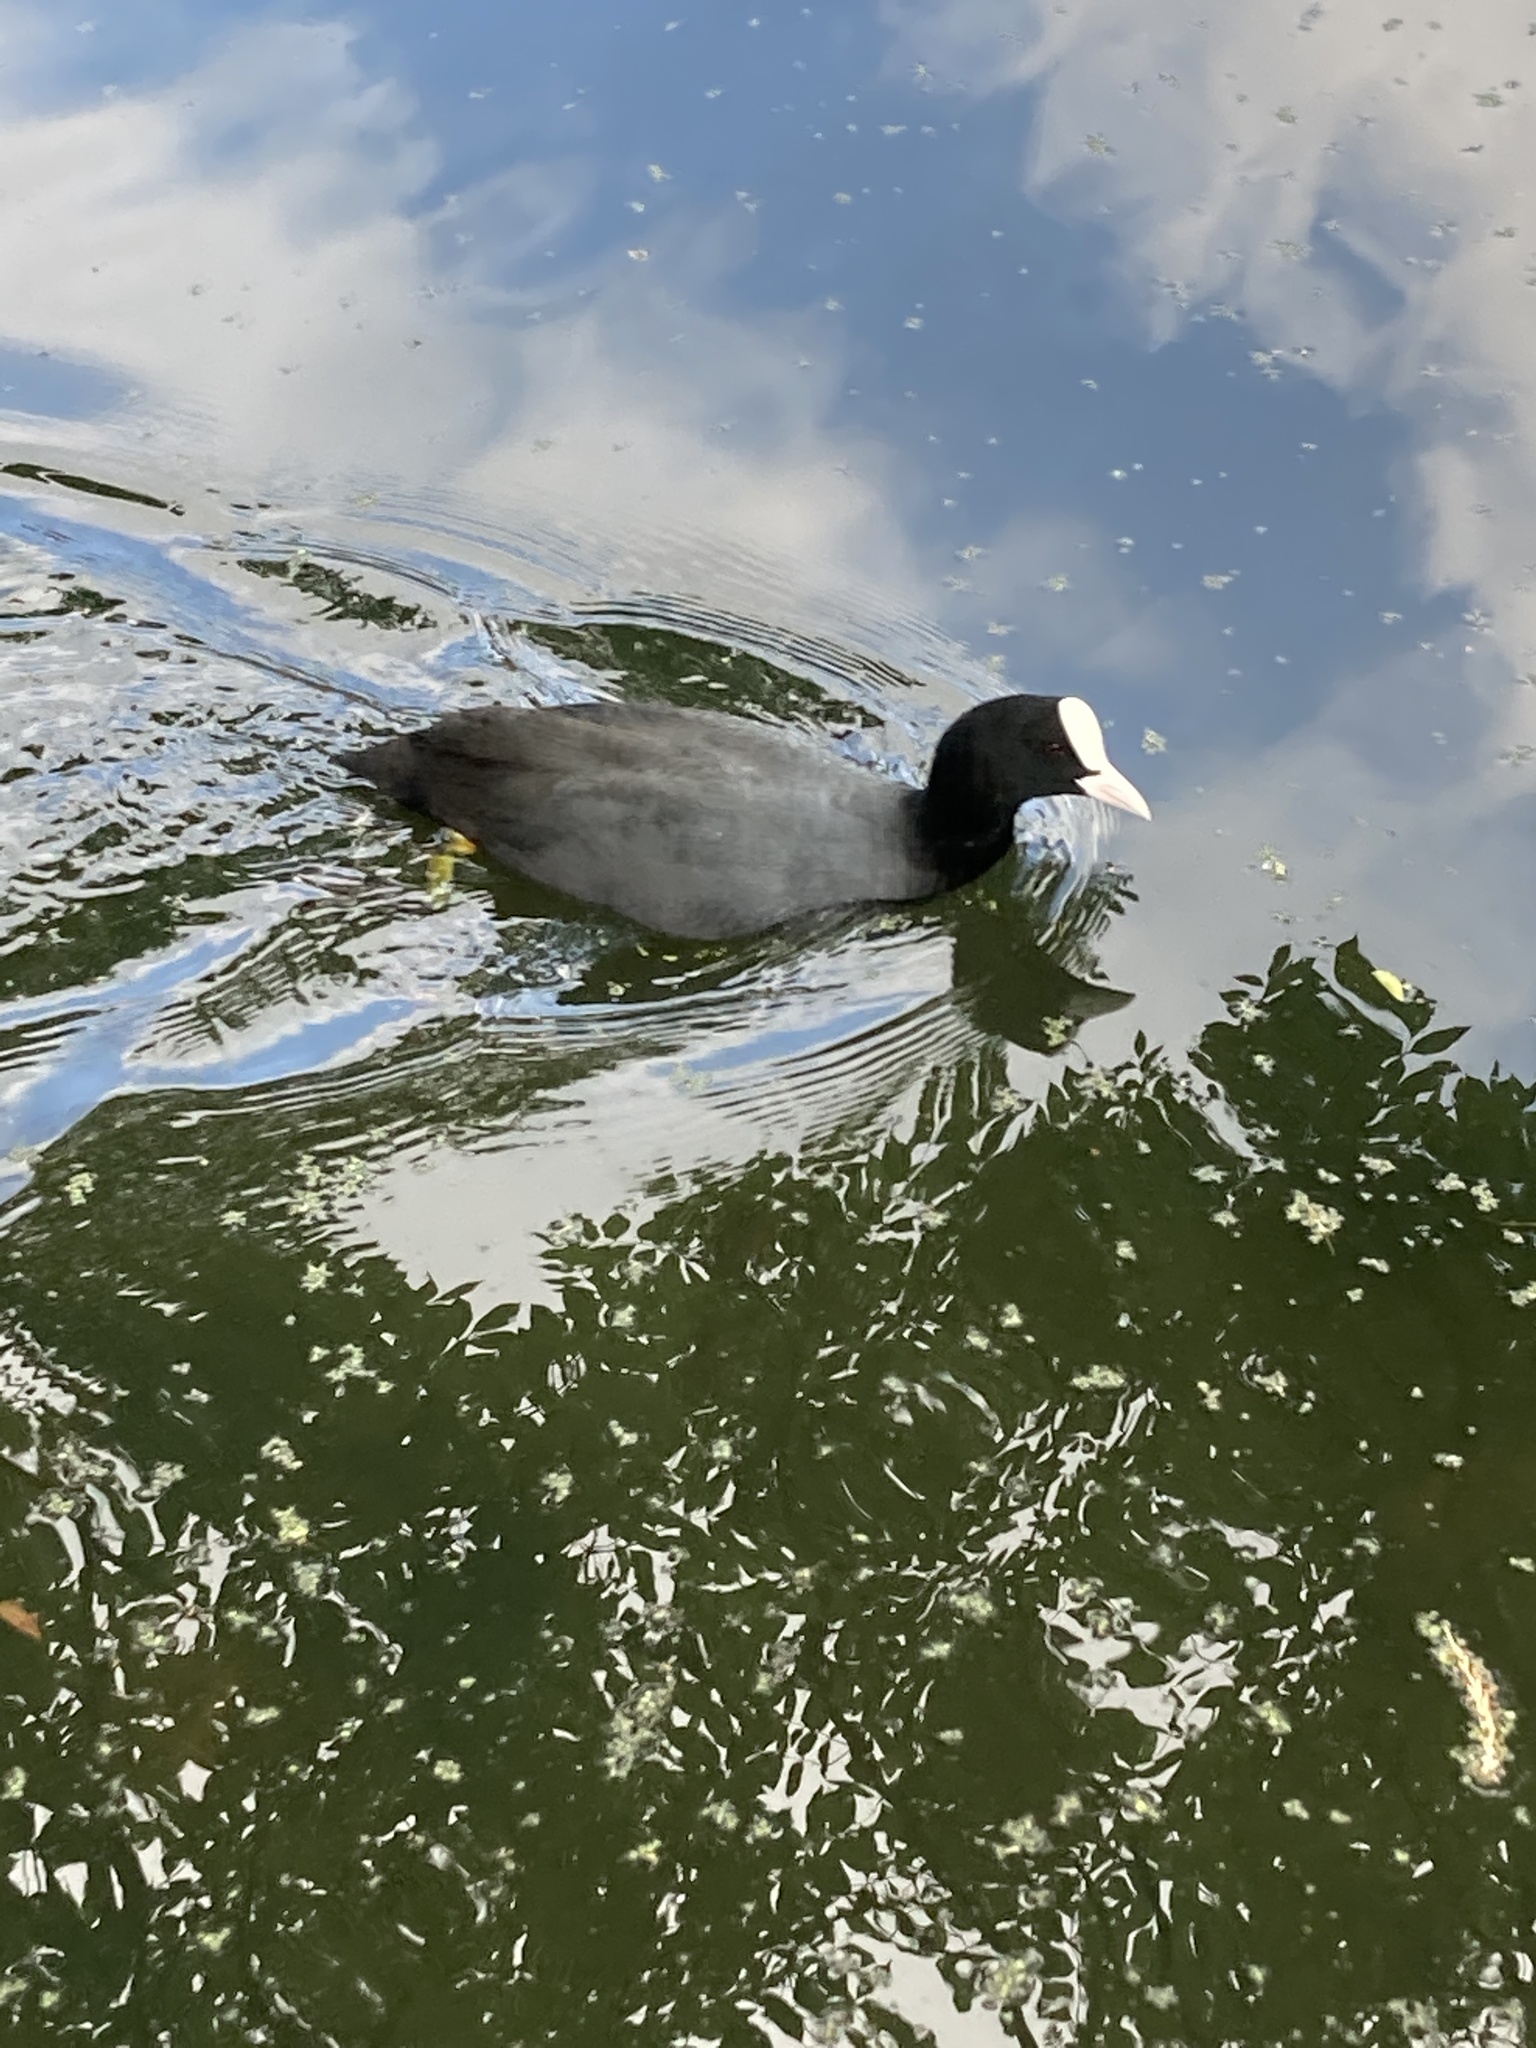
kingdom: Animalia
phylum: Chordata
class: Aves
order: Gruiformes
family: Rallidae
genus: Fulica
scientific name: Fulica atra
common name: Eurasian coot
